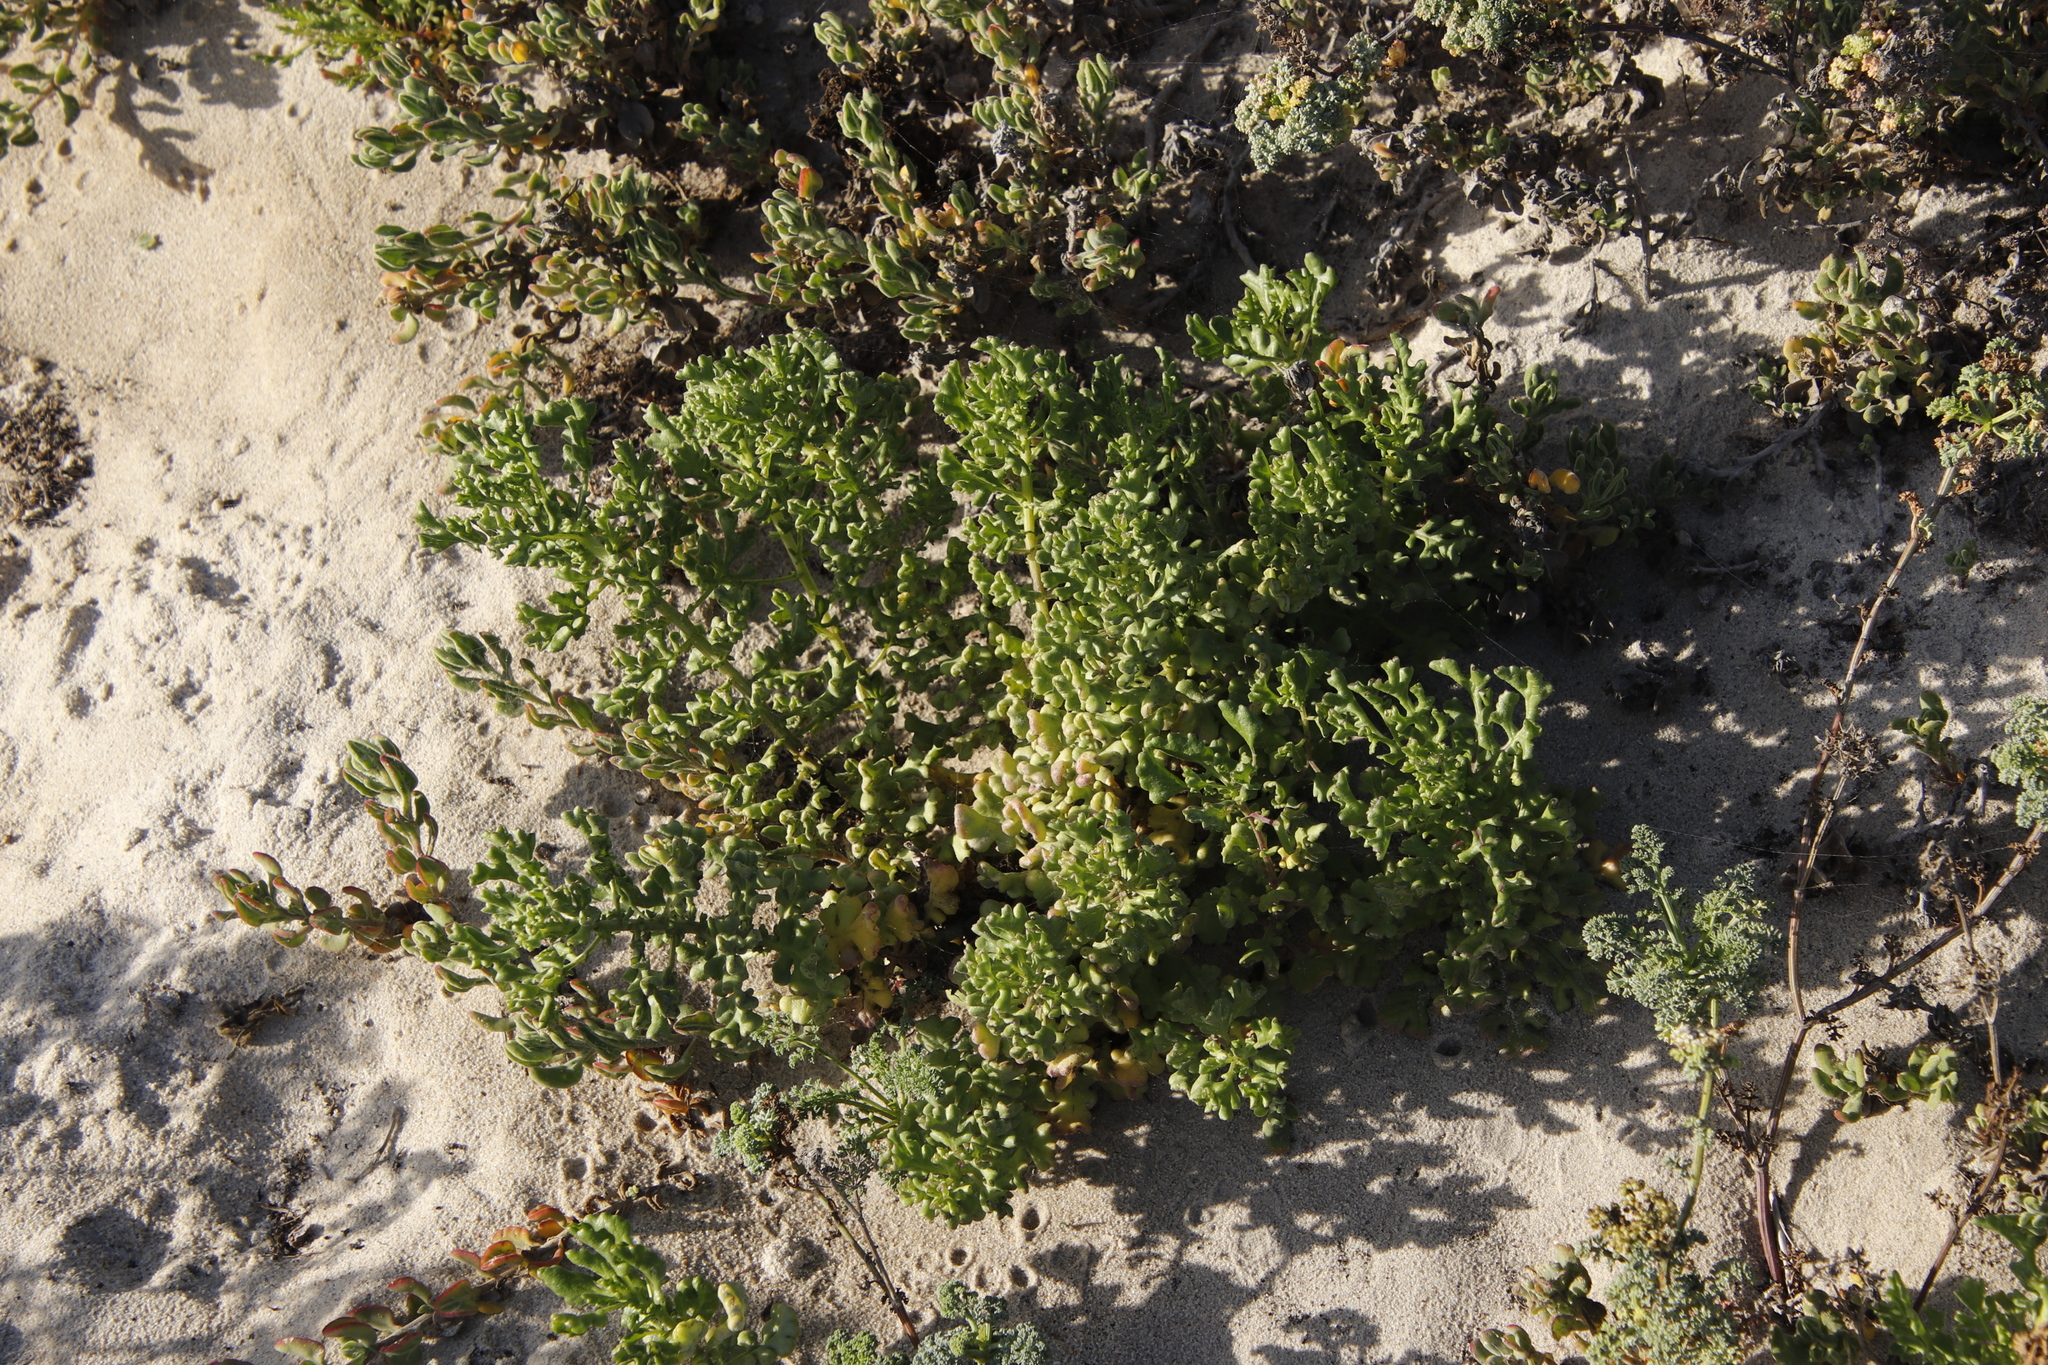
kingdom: Plantae
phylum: Tracheophyta
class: Magnoliopsida
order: Apiales
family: Apiaceae
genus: Dasispermum
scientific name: Dasispermum suffruticosum
